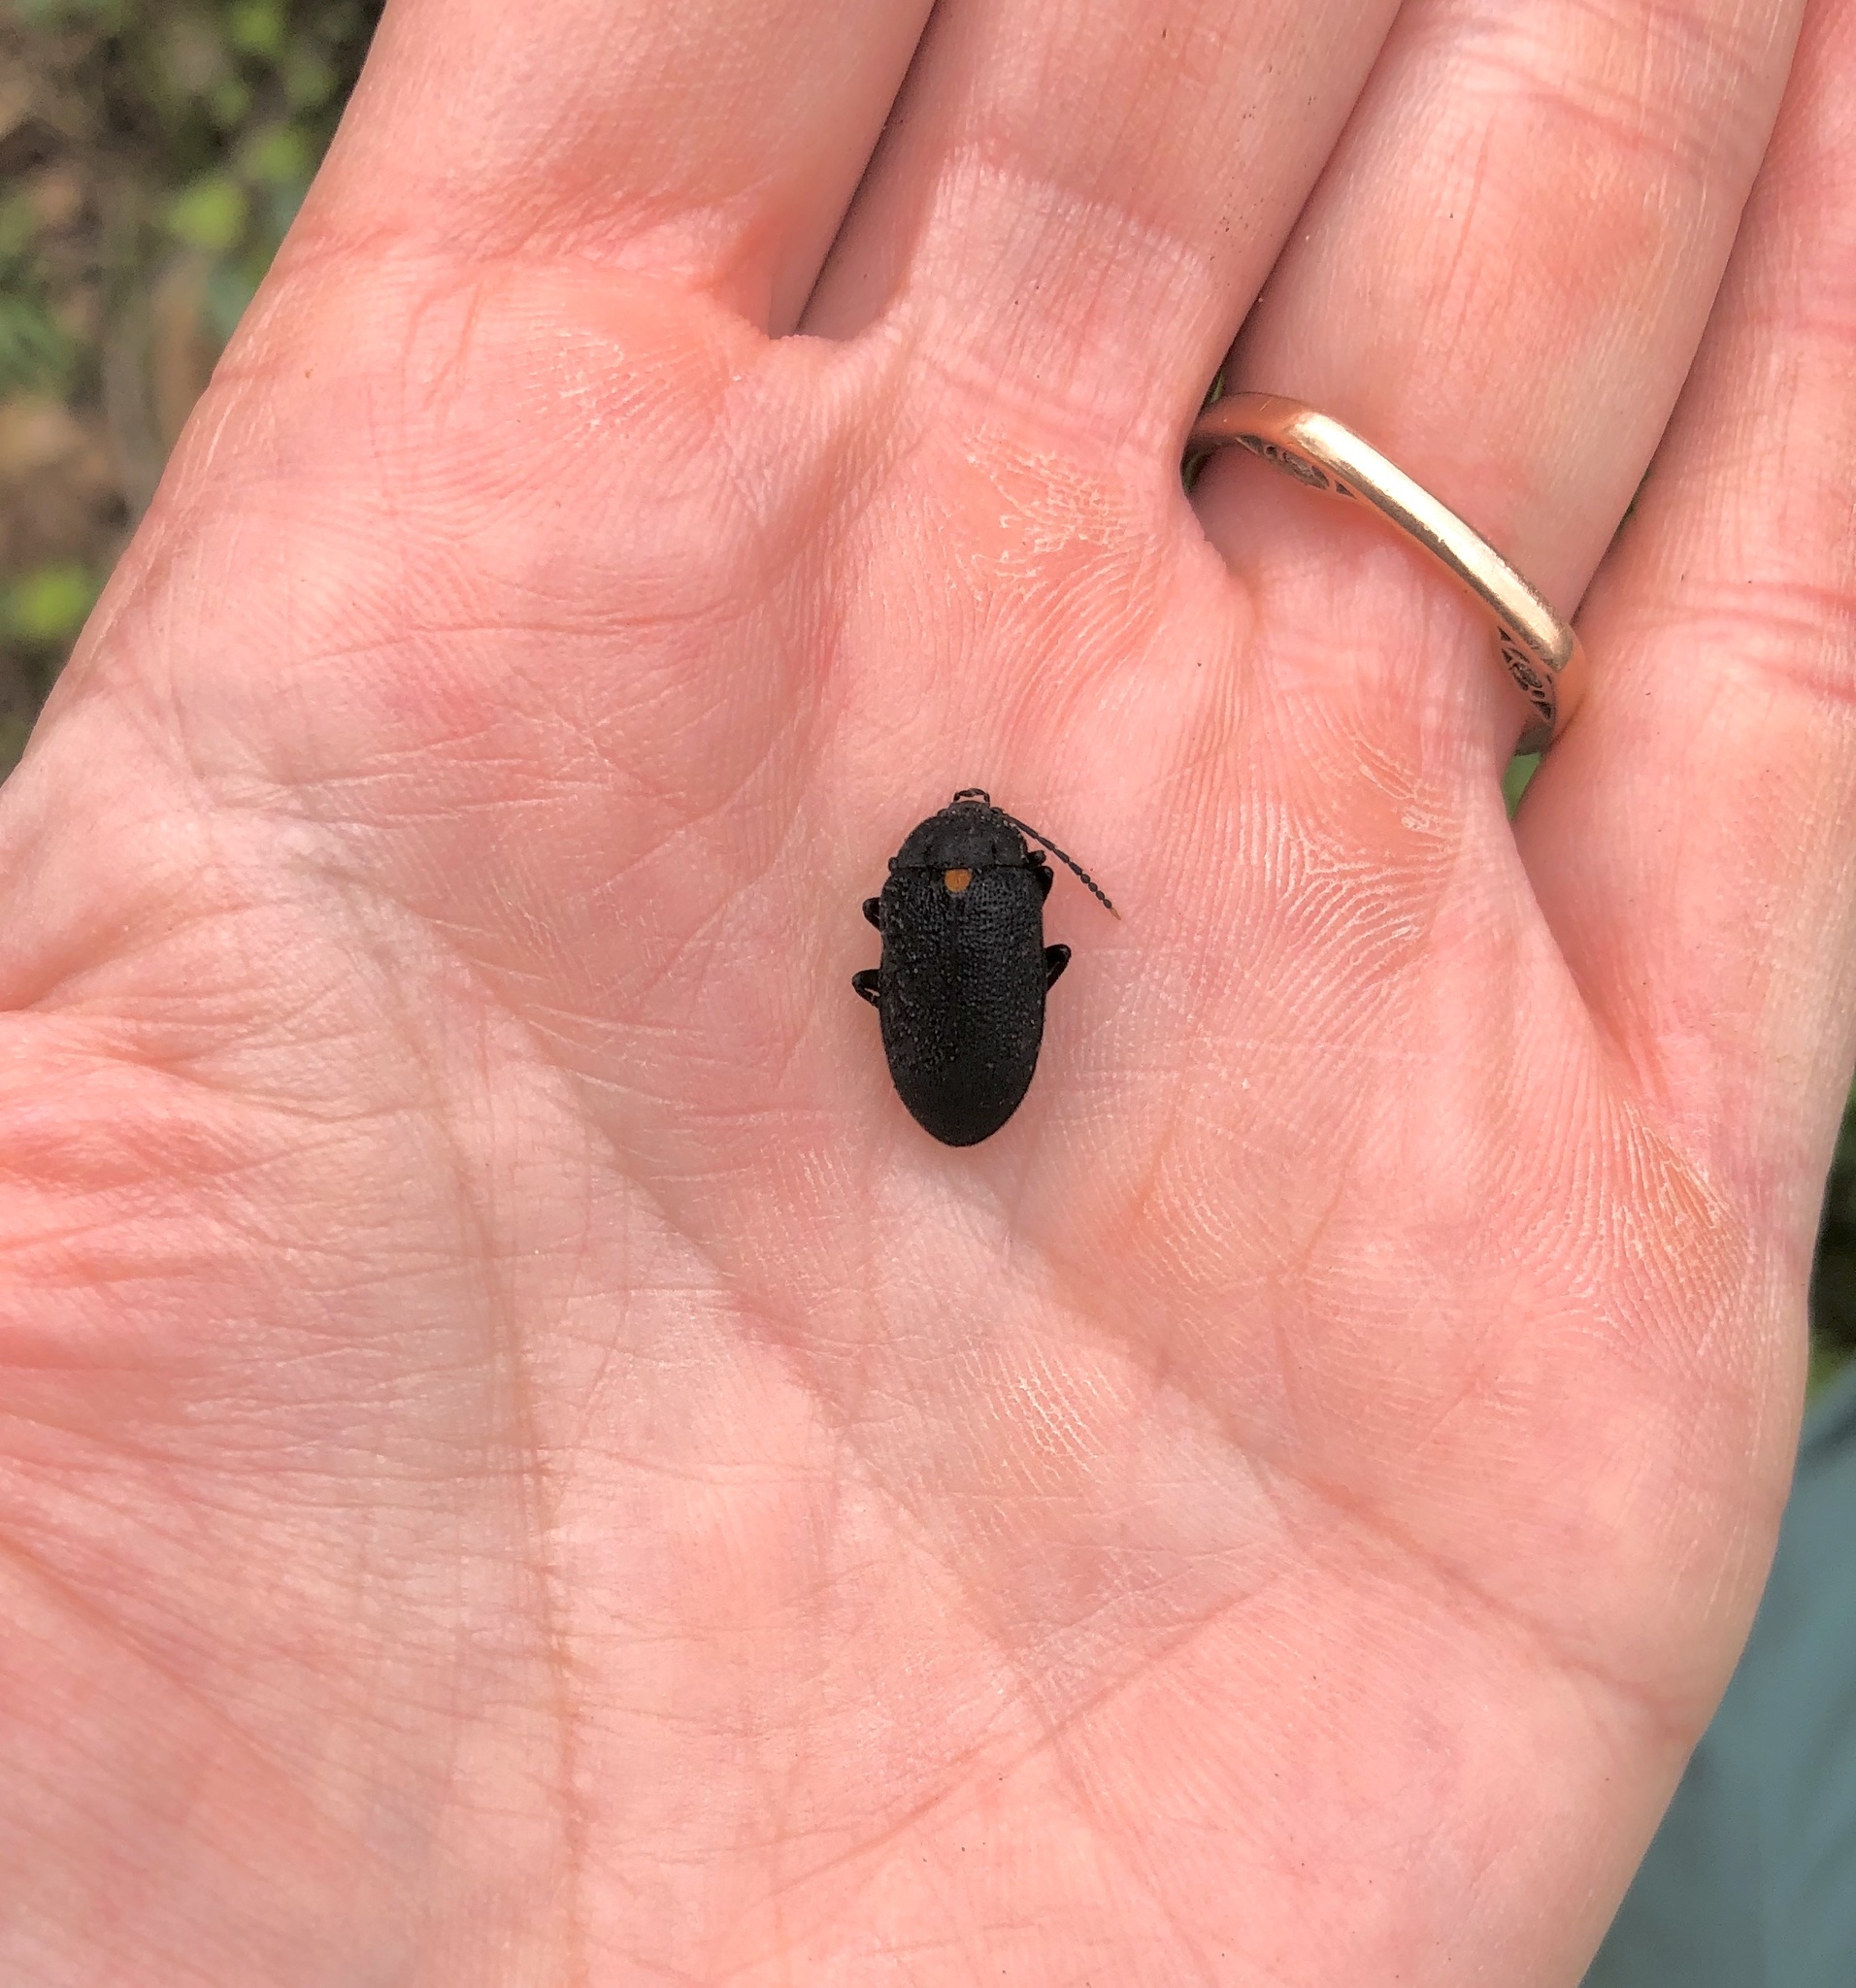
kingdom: Animalia
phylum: Arthropoda
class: Insecta
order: Coleoptera
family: Tetratomidae
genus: Penthe
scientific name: Penthe obliquata
